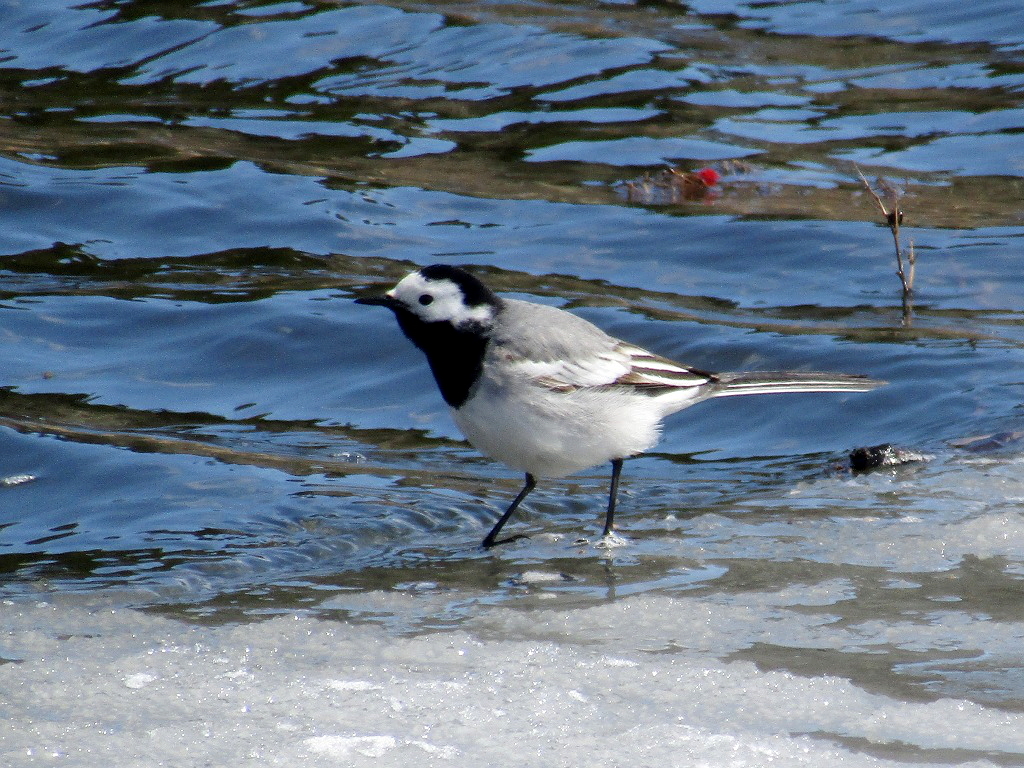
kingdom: Animalia
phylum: Chordata
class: Aves
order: Passeriformes
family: Motacillidae
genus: Motacilla
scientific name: Motacilla alba
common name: White wagtail
